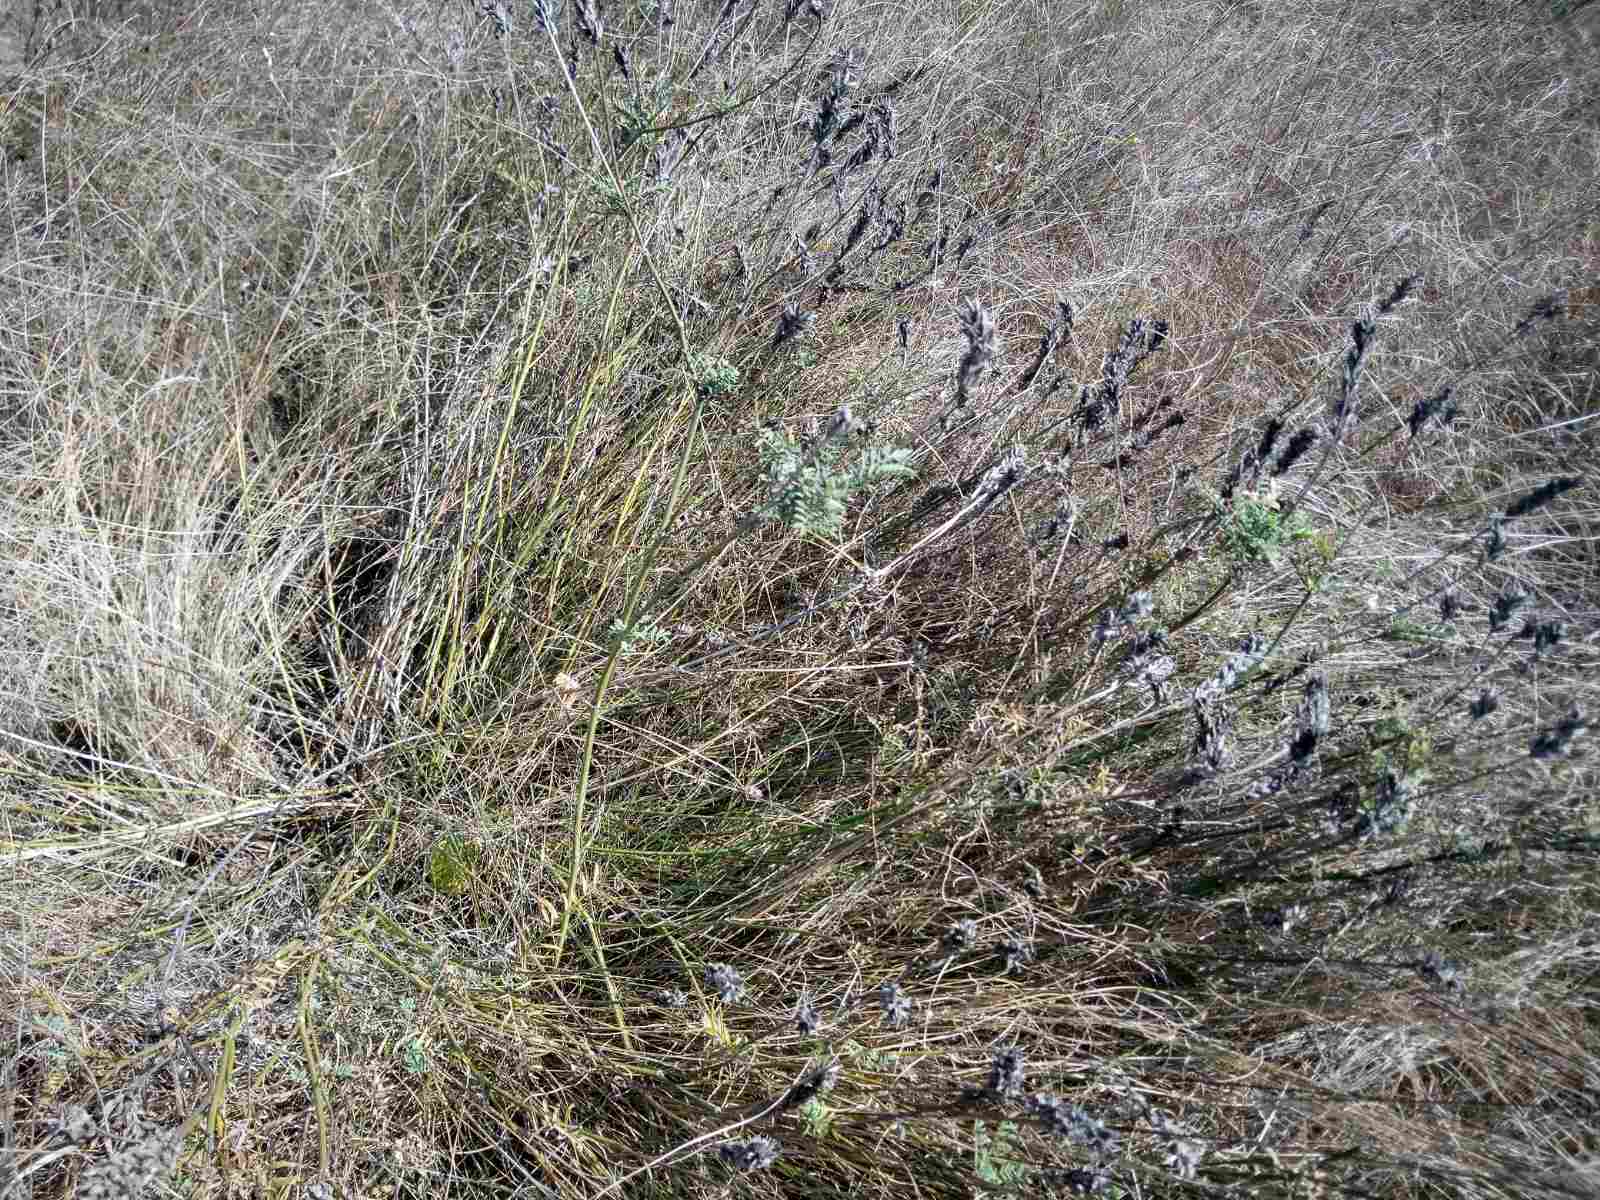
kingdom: Plantae
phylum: Tracheophyta
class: Magnoliopsida
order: Fabales
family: Fabaceae
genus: Astragalus
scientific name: Astragalus onobrychis
